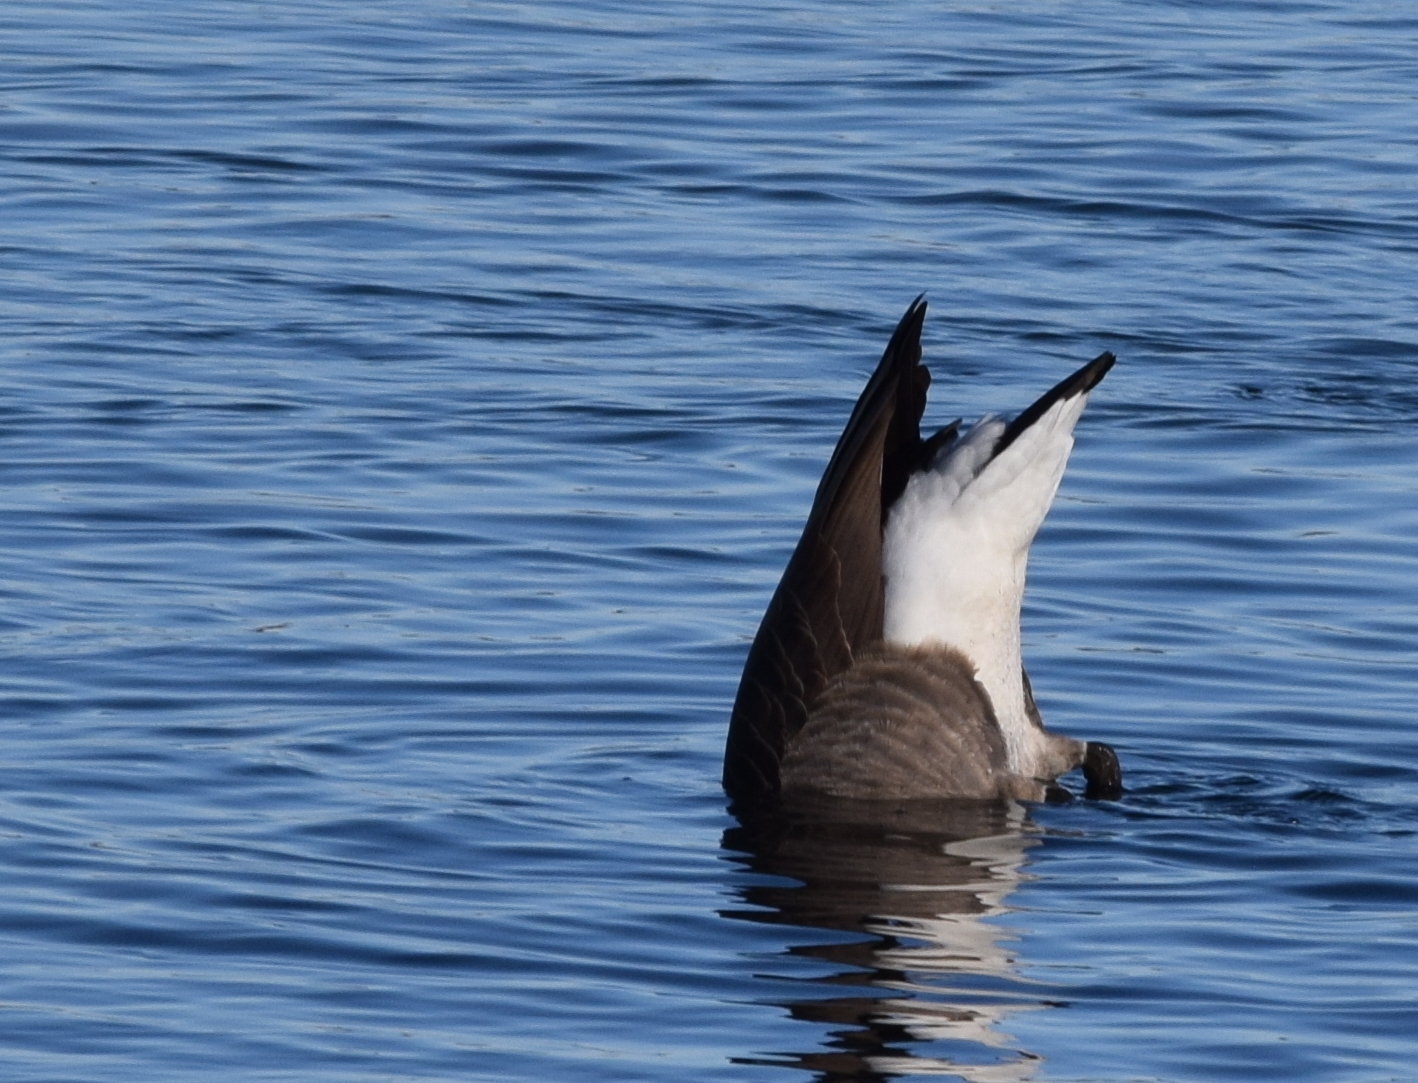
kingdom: Animalia
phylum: Chordata
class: Aves
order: Anseriformes
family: Anatidae
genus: Branta
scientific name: Branta canadensis
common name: Canada goose
